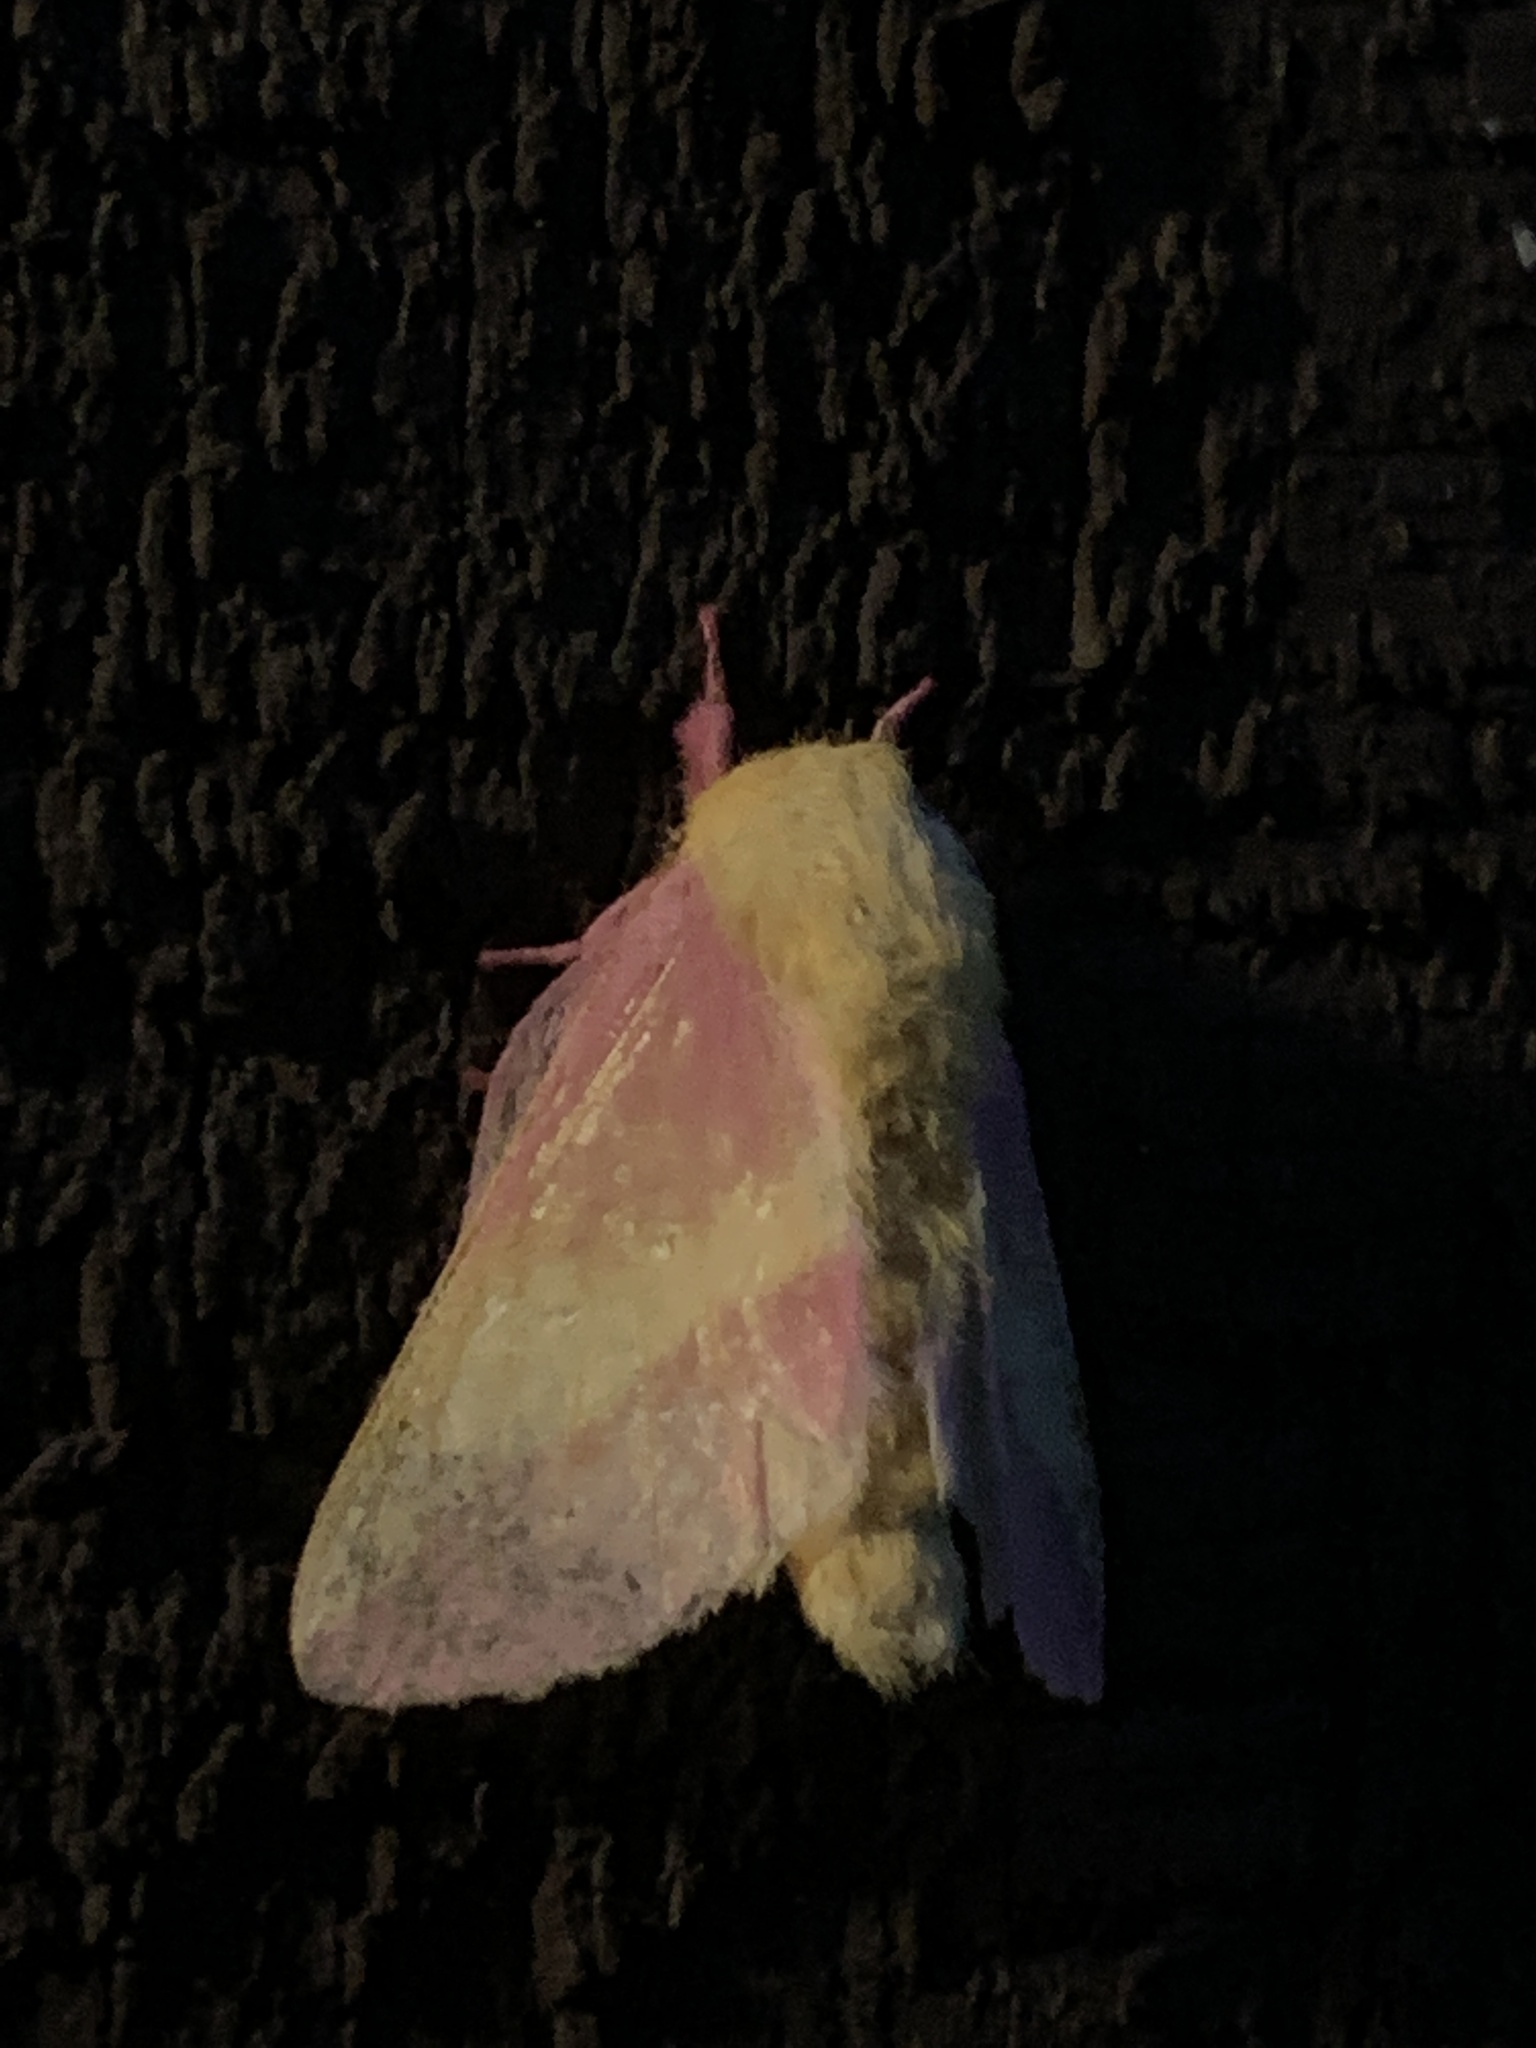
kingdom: Animalia
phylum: Arthropoda
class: Insecta
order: Lepidoptera
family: Saturniidae
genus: Dryocampa
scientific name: Dryocampa rubicunda
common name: Rosy maple moth
